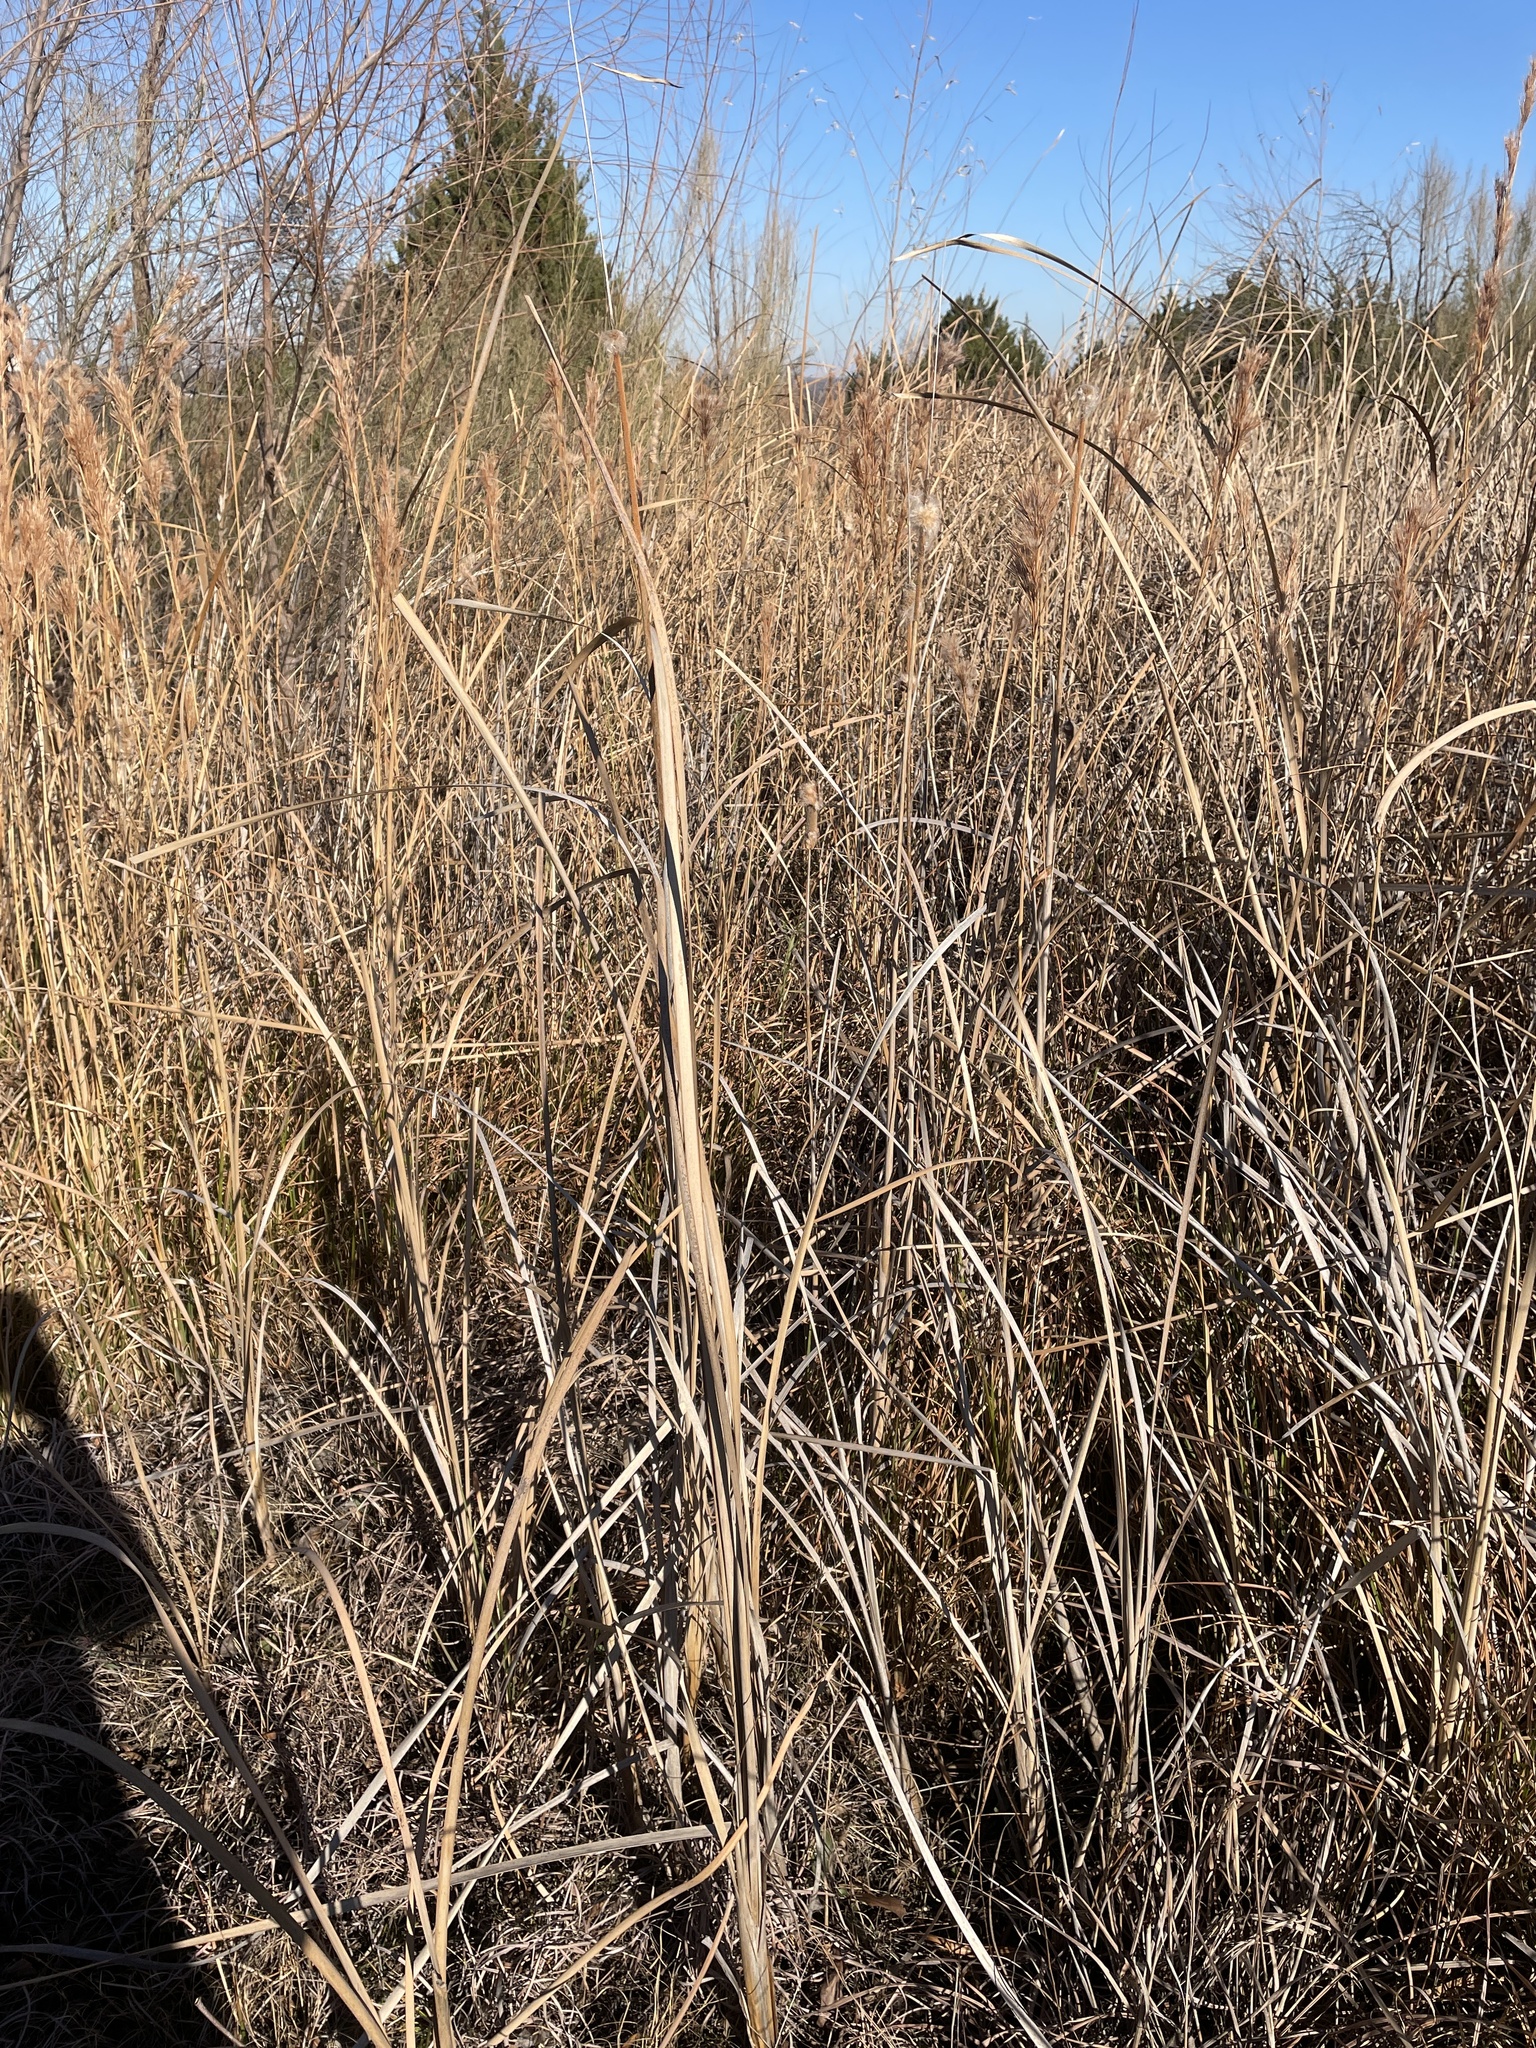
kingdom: Plantae
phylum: Tracheophyta
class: Liliopsida
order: Poales
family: Typhaceae
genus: Typha
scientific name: Typha domingensis
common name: Southern cattail
